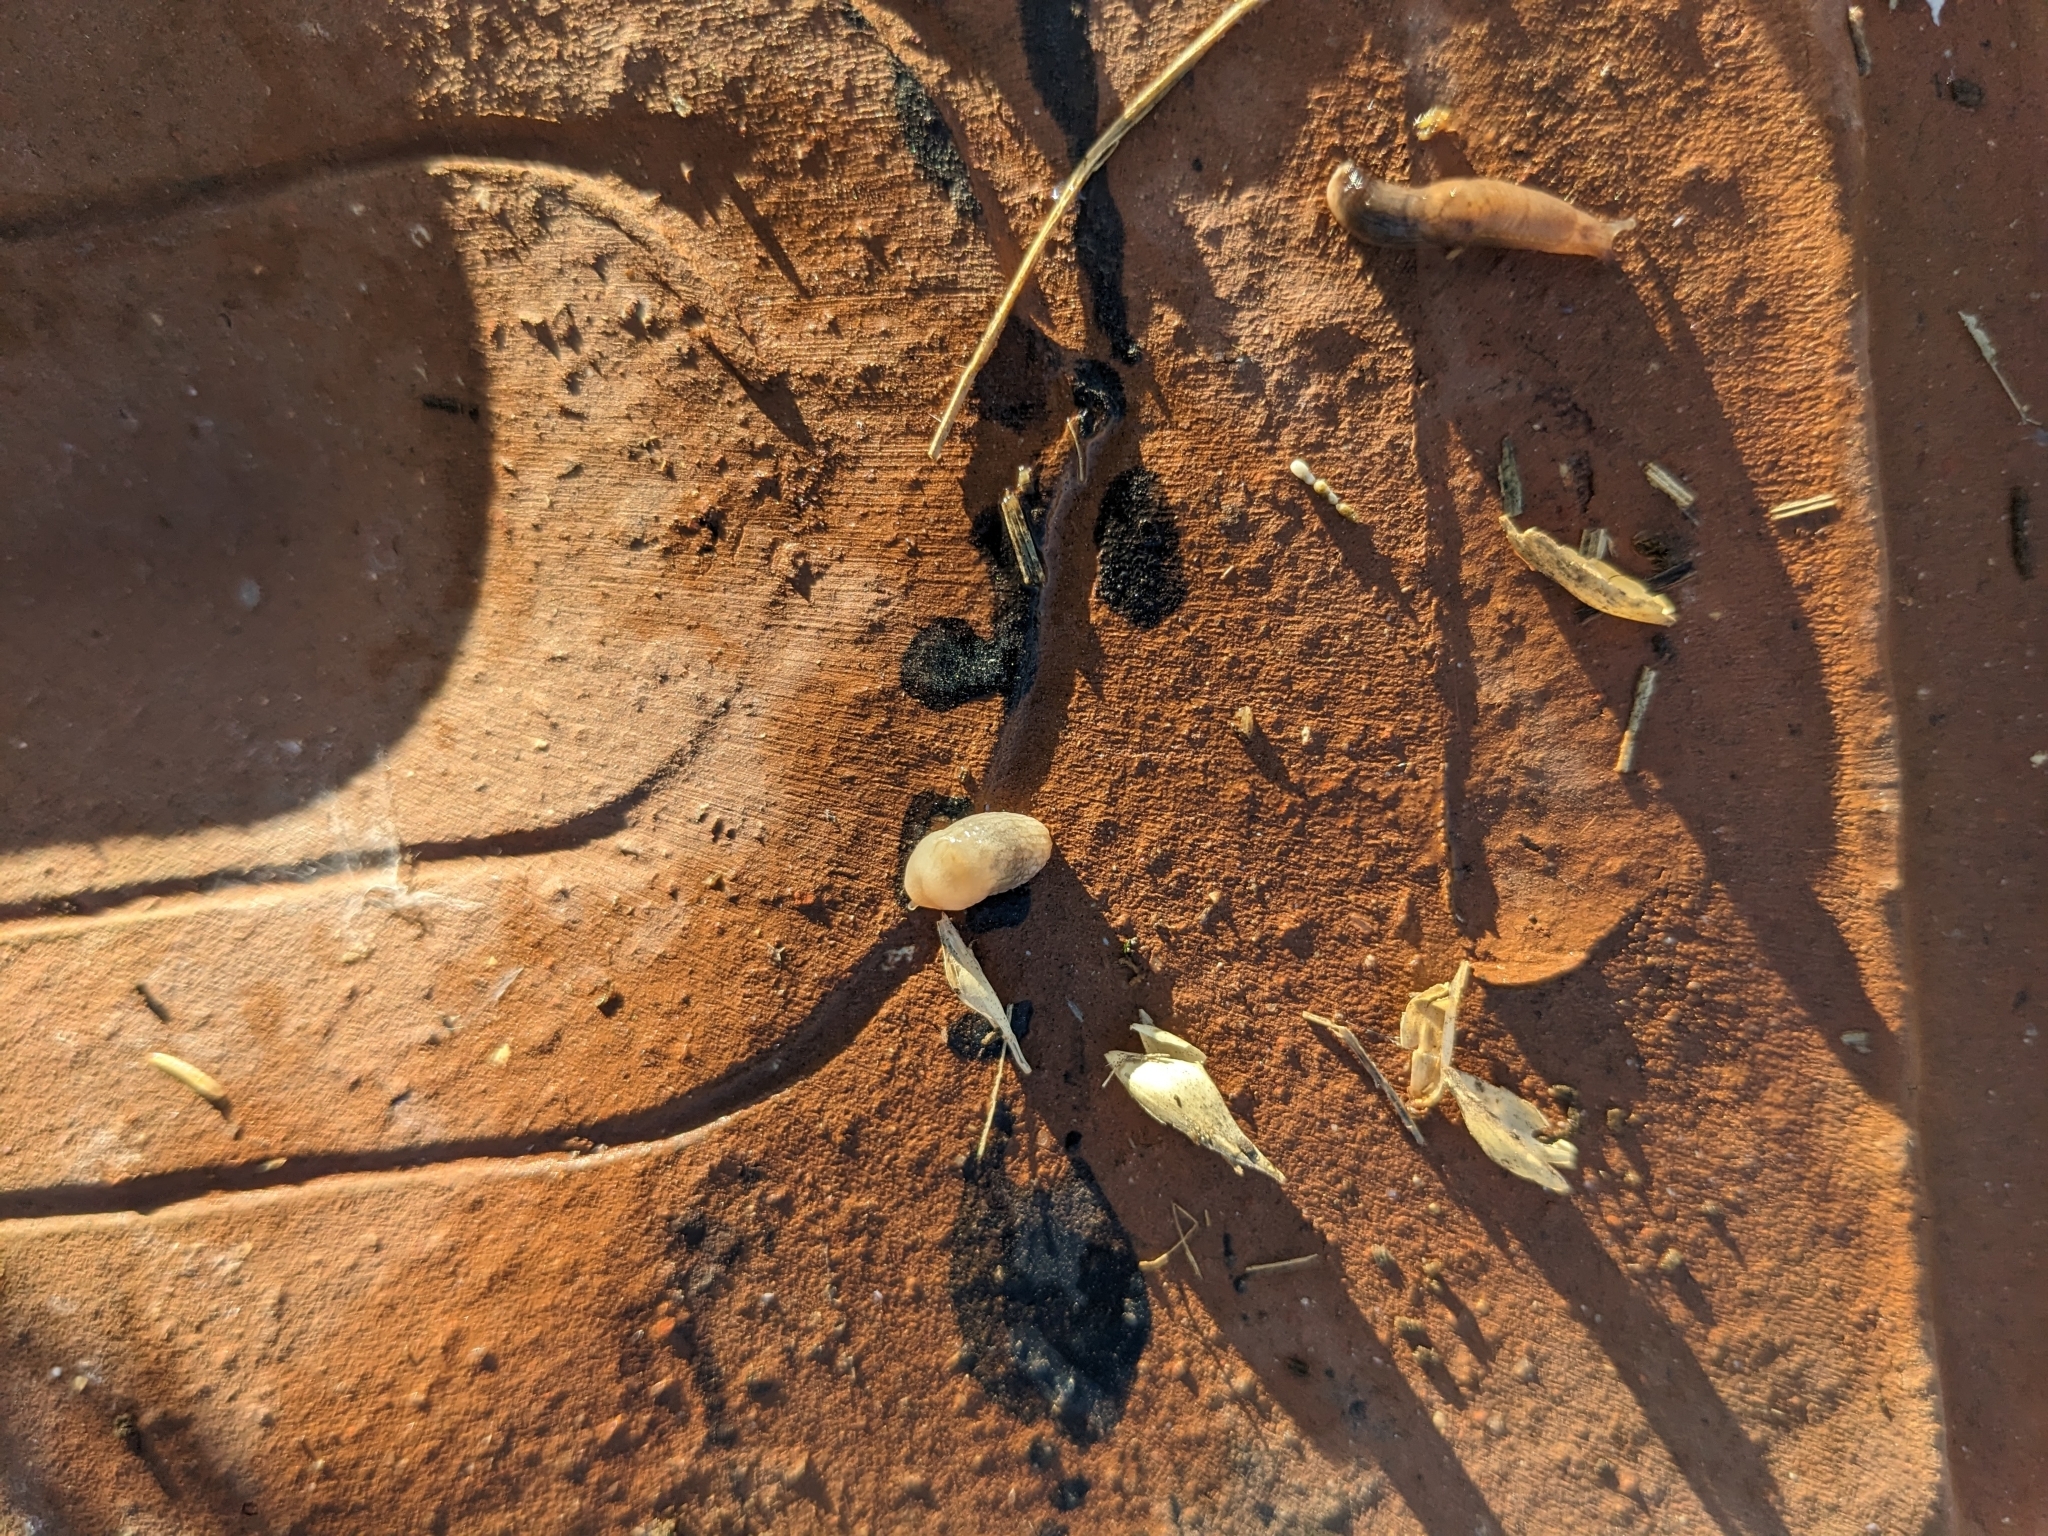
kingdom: Animalia
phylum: Mollusca
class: Gastropoda
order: Stylommatophora
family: Agriolimacidae
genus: Deroceras
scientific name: Deroceras reticulatum
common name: Gray field slug
